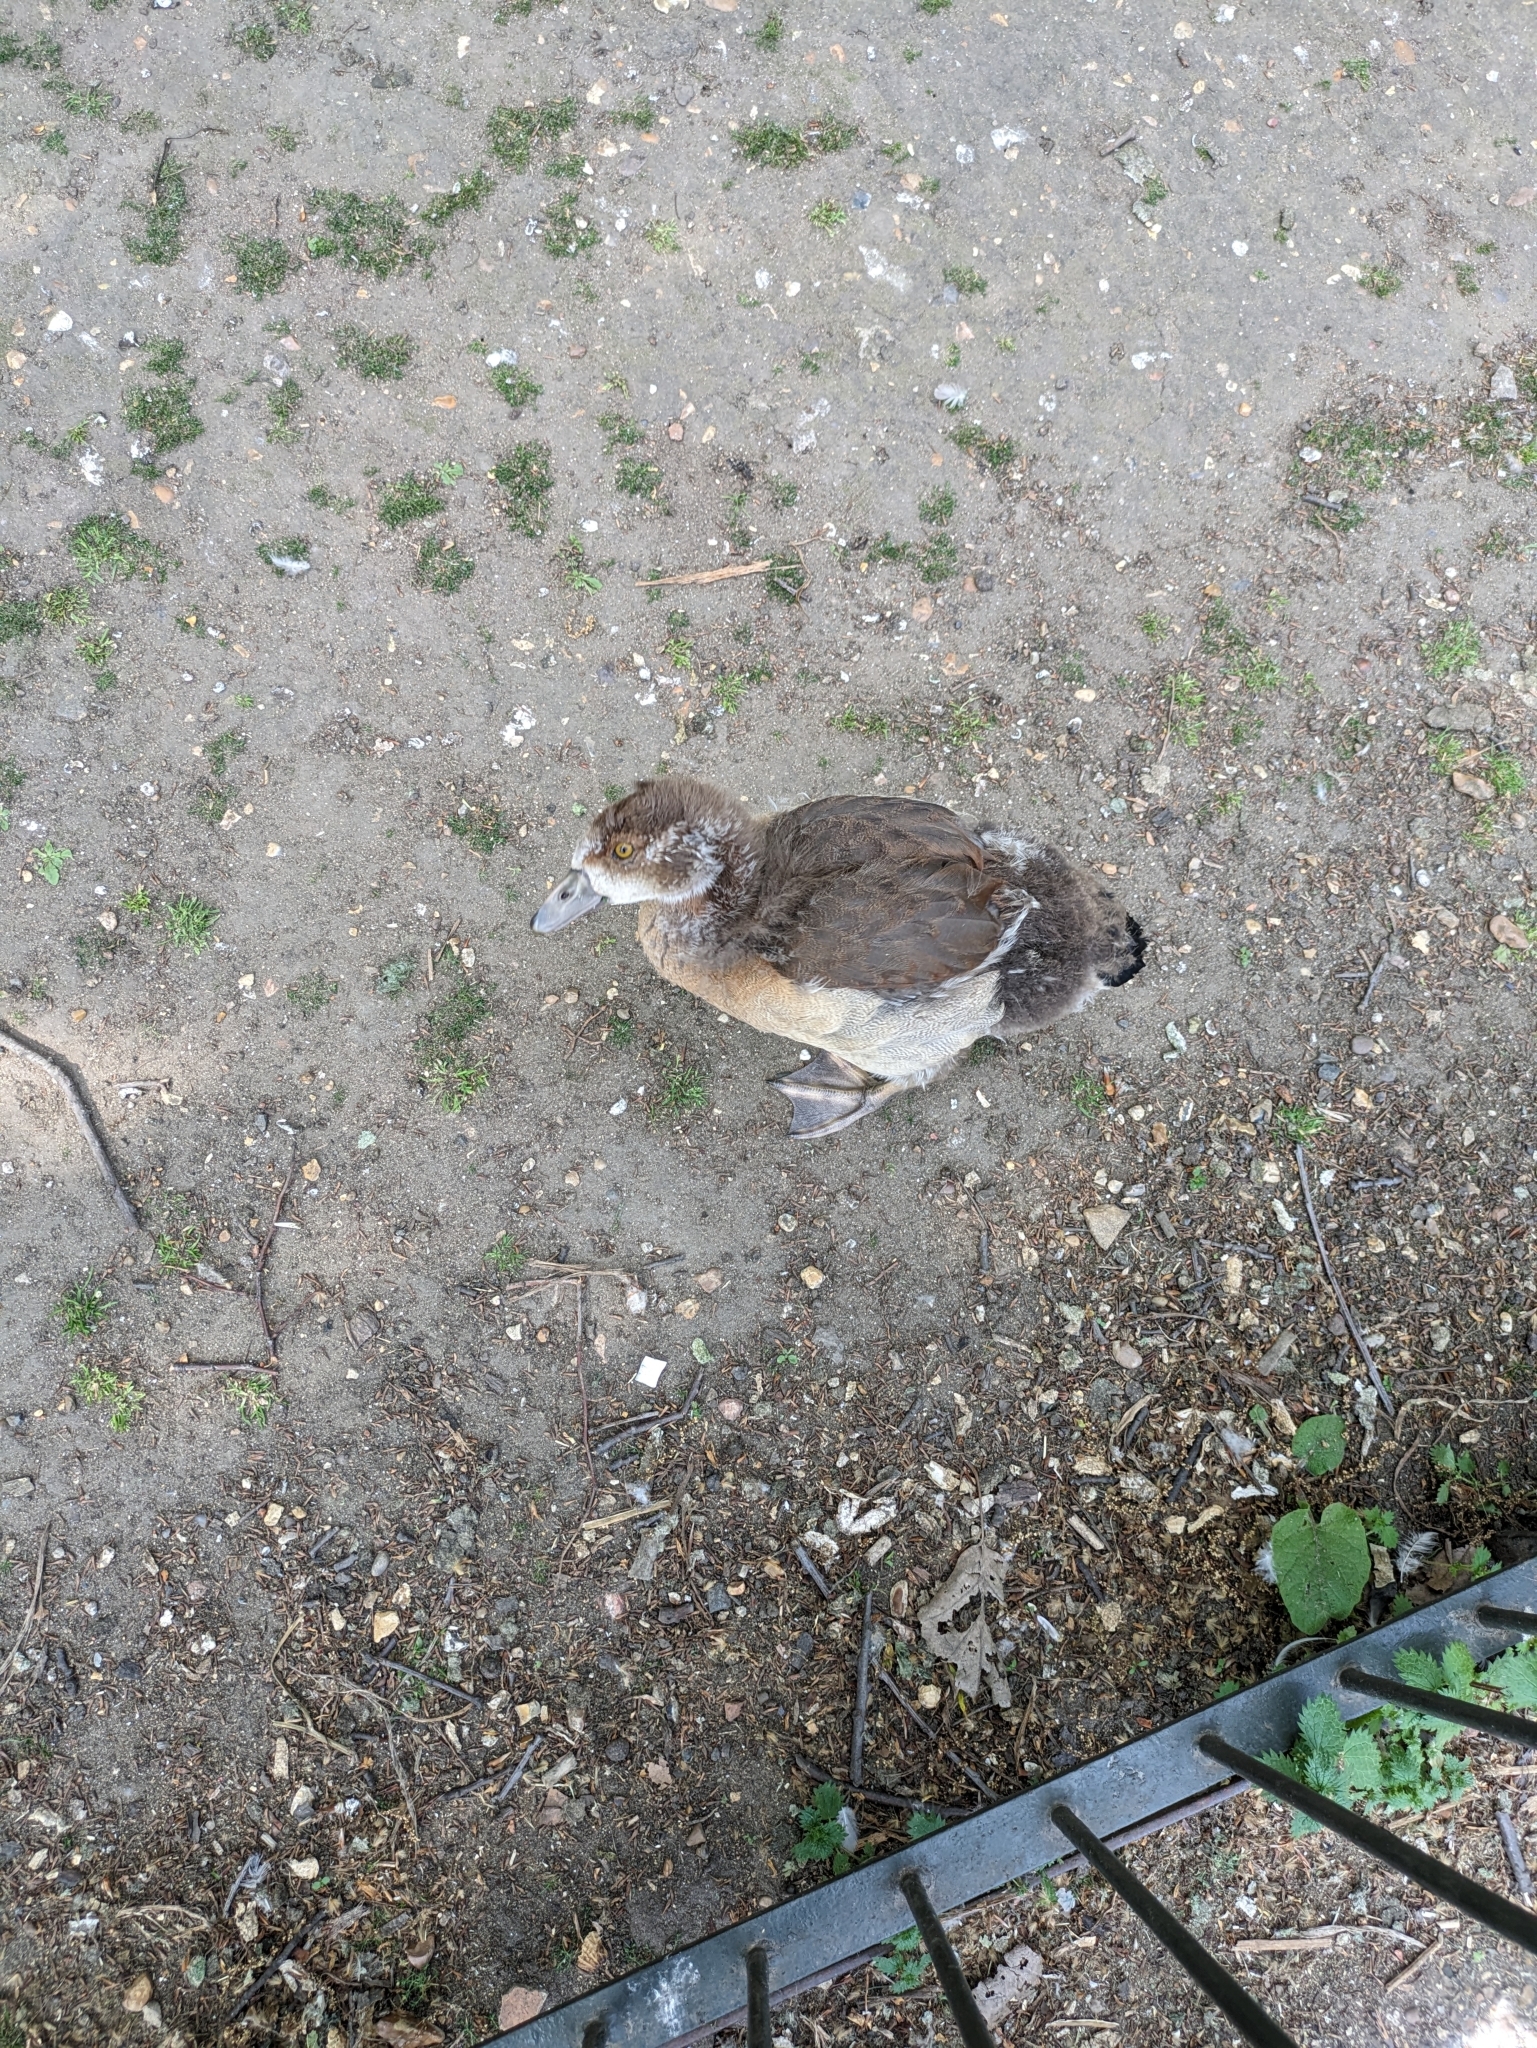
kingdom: Animalia
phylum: Chordata
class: Aves
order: Anseriformes
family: Anatidae
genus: Alopochen
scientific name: Alopochen aegyptiaca
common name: Egyptian goose
